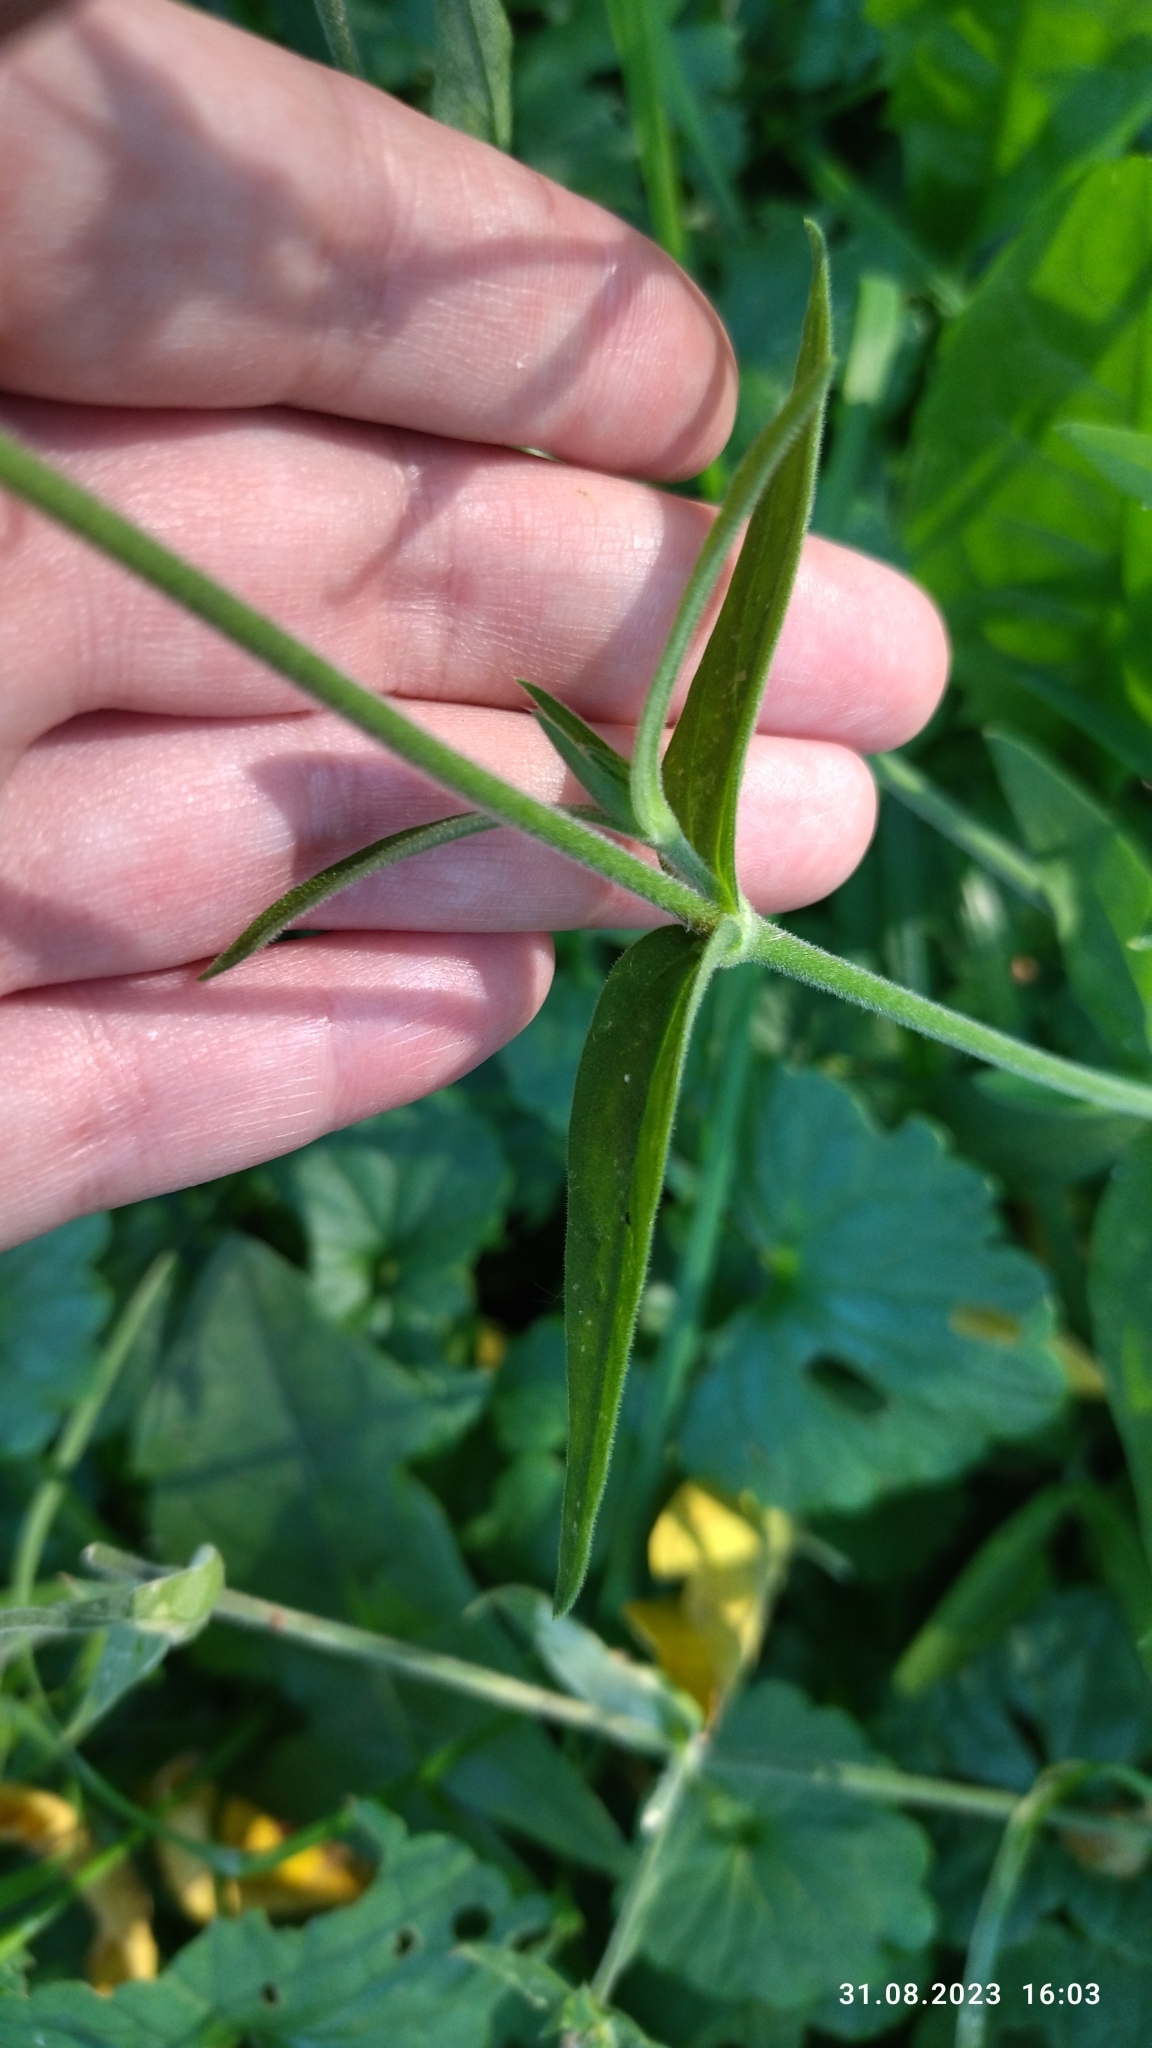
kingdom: Plantae
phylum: Tracheophyta
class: Magnoliopsida
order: Caryophyllales
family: Caryophyllaceae
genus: Silene
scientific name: Silene latifolia
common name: White campion
